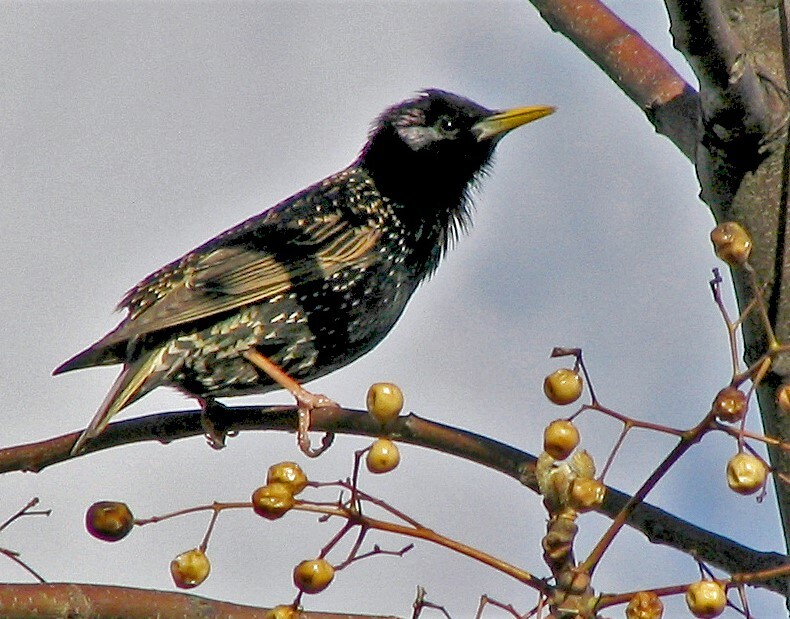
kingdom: Animalia
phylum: Chordata
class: Aves
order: Passeriformes
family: Sturnidae
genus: Sturnus
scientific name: Sturnus vulgaris
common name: Common starling
